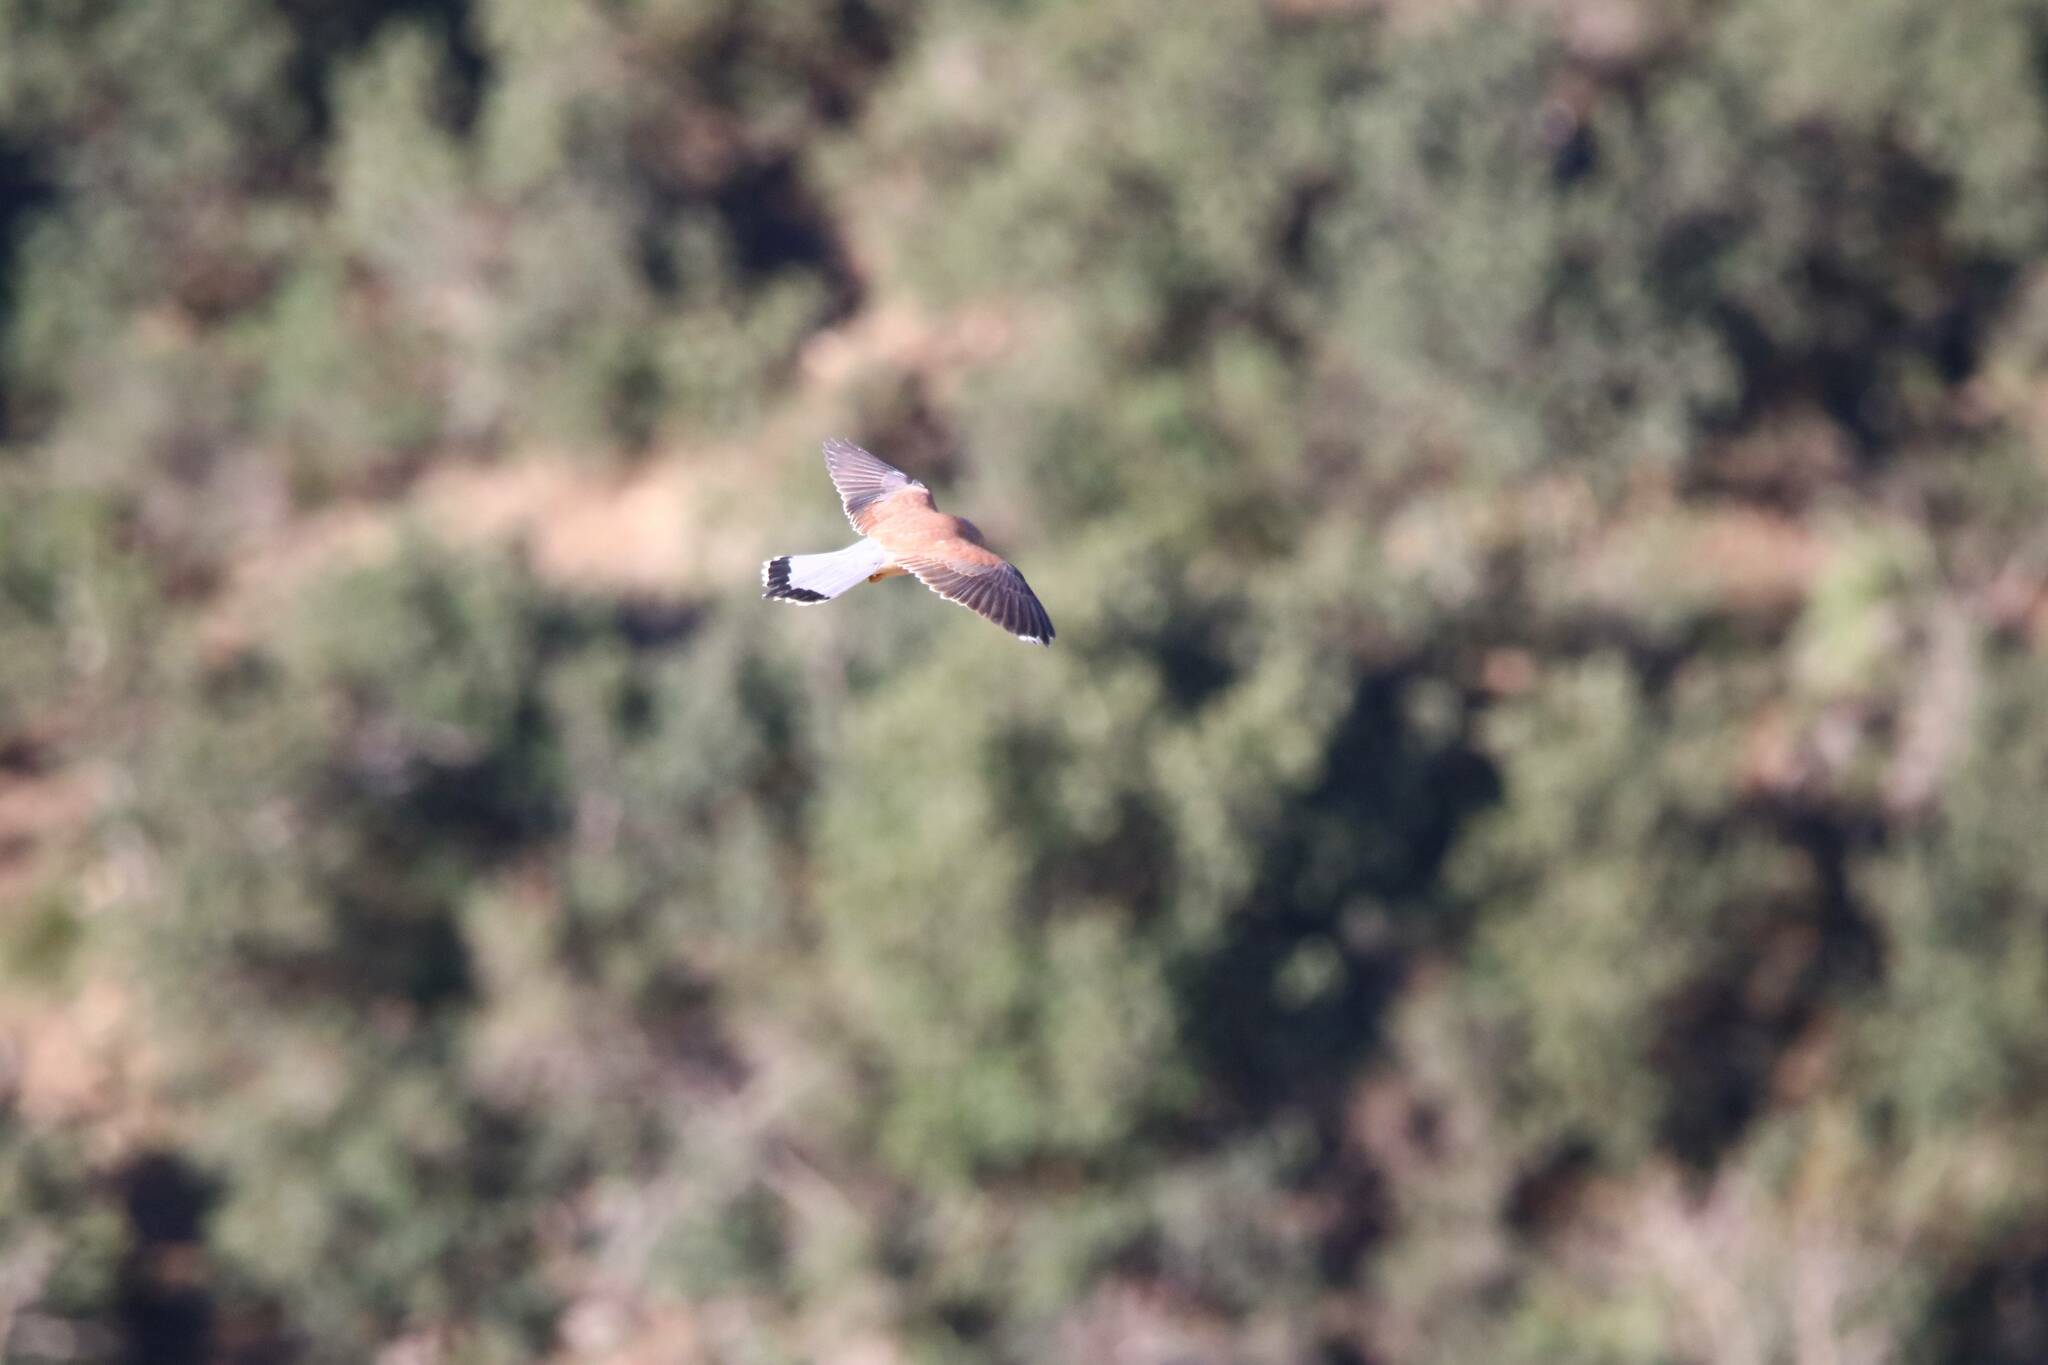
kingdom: Animalia
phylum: Chordata
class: Aves
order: Falconiformes
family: Falconidae
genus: Falco
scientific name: Falco naumanni
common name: Lesser kestrel
